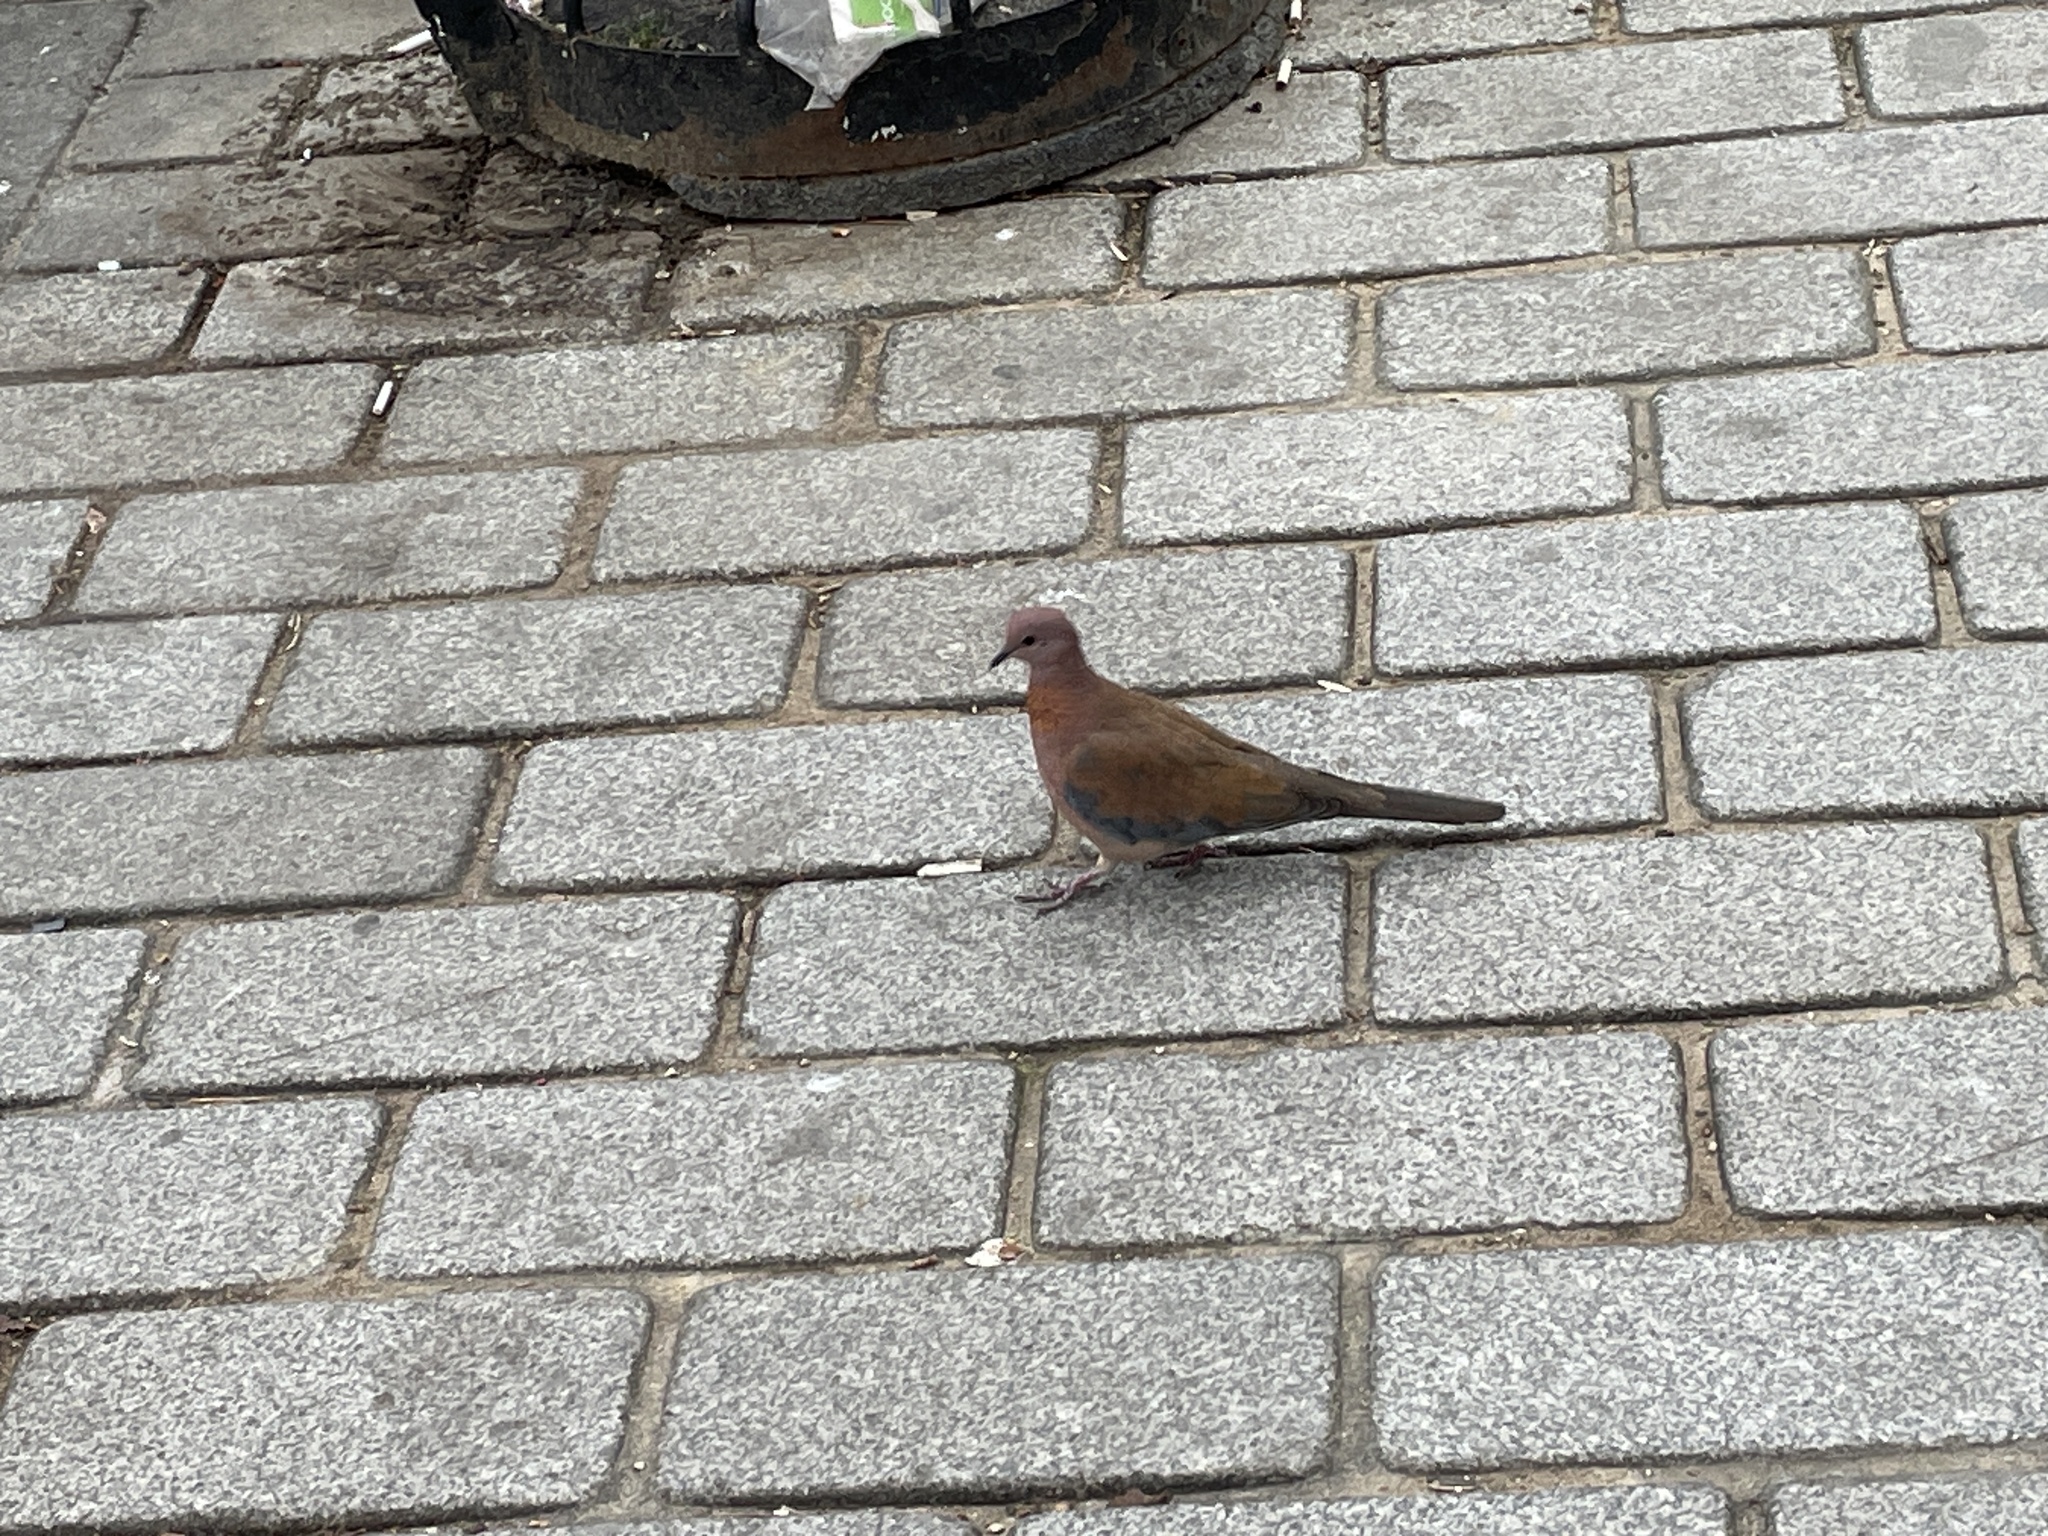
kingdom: Animalia
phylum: Chordata
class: Aves
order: Columbiformes
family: Columbidae
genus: Spilopelia
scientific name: Spilopelia senegalensis
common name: Laughing dove
